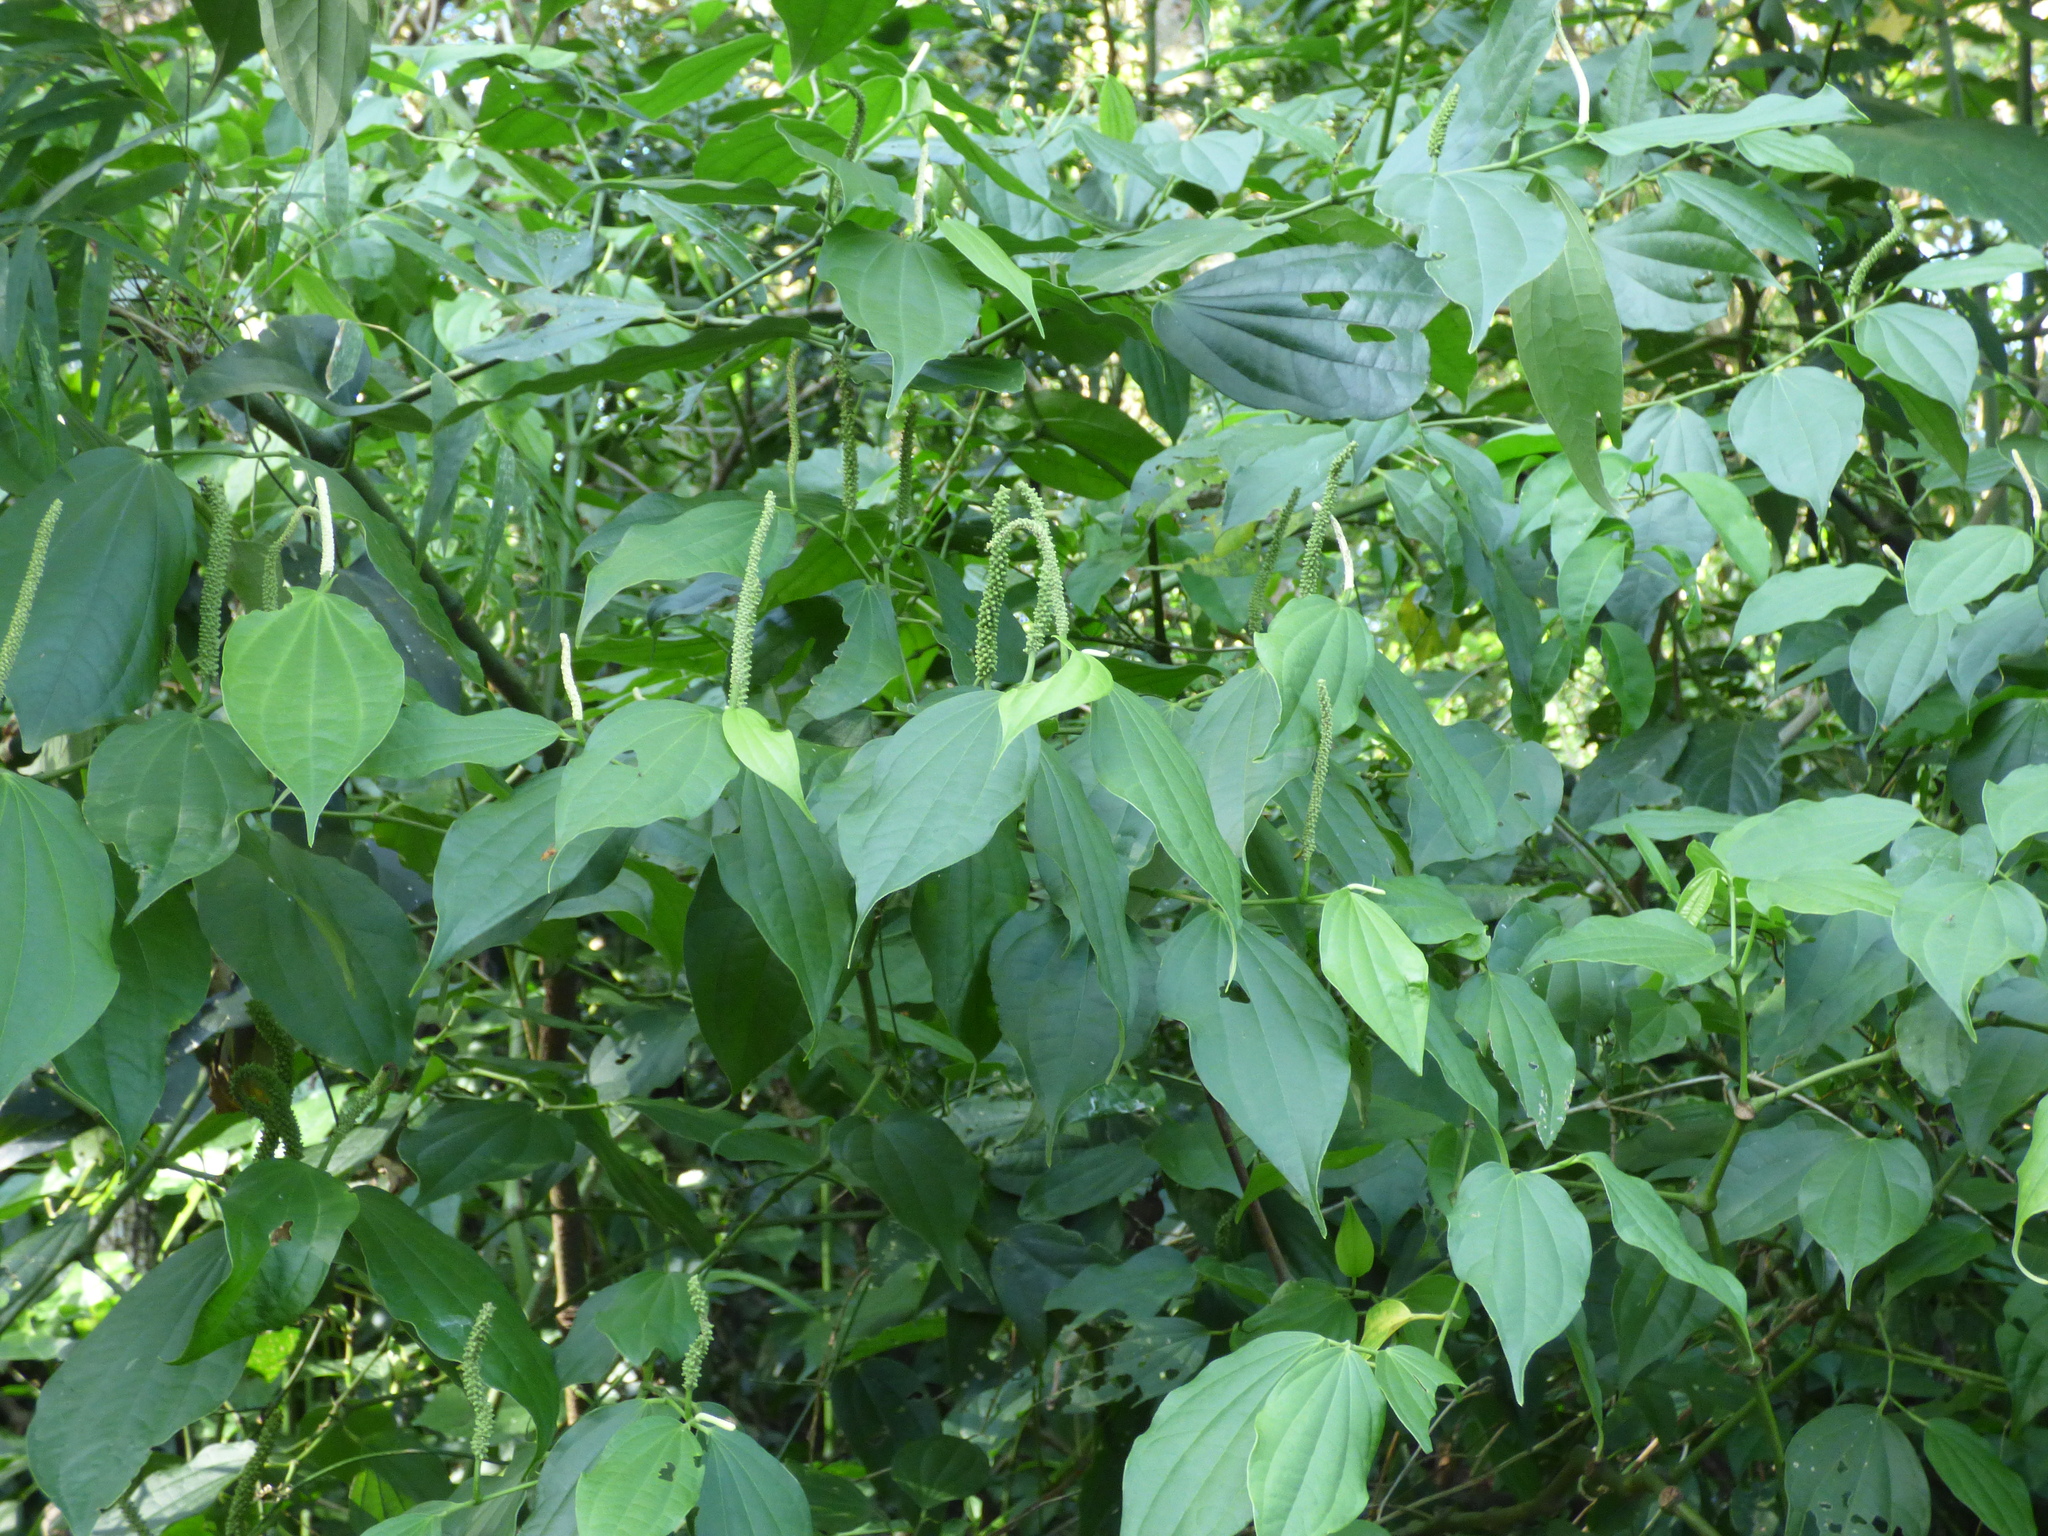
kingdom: Plantae
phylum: Tracheophyta
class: Magnoliopsida
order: Piperales
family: Piperaceae
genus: Piper
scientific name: Piper hieronymi
